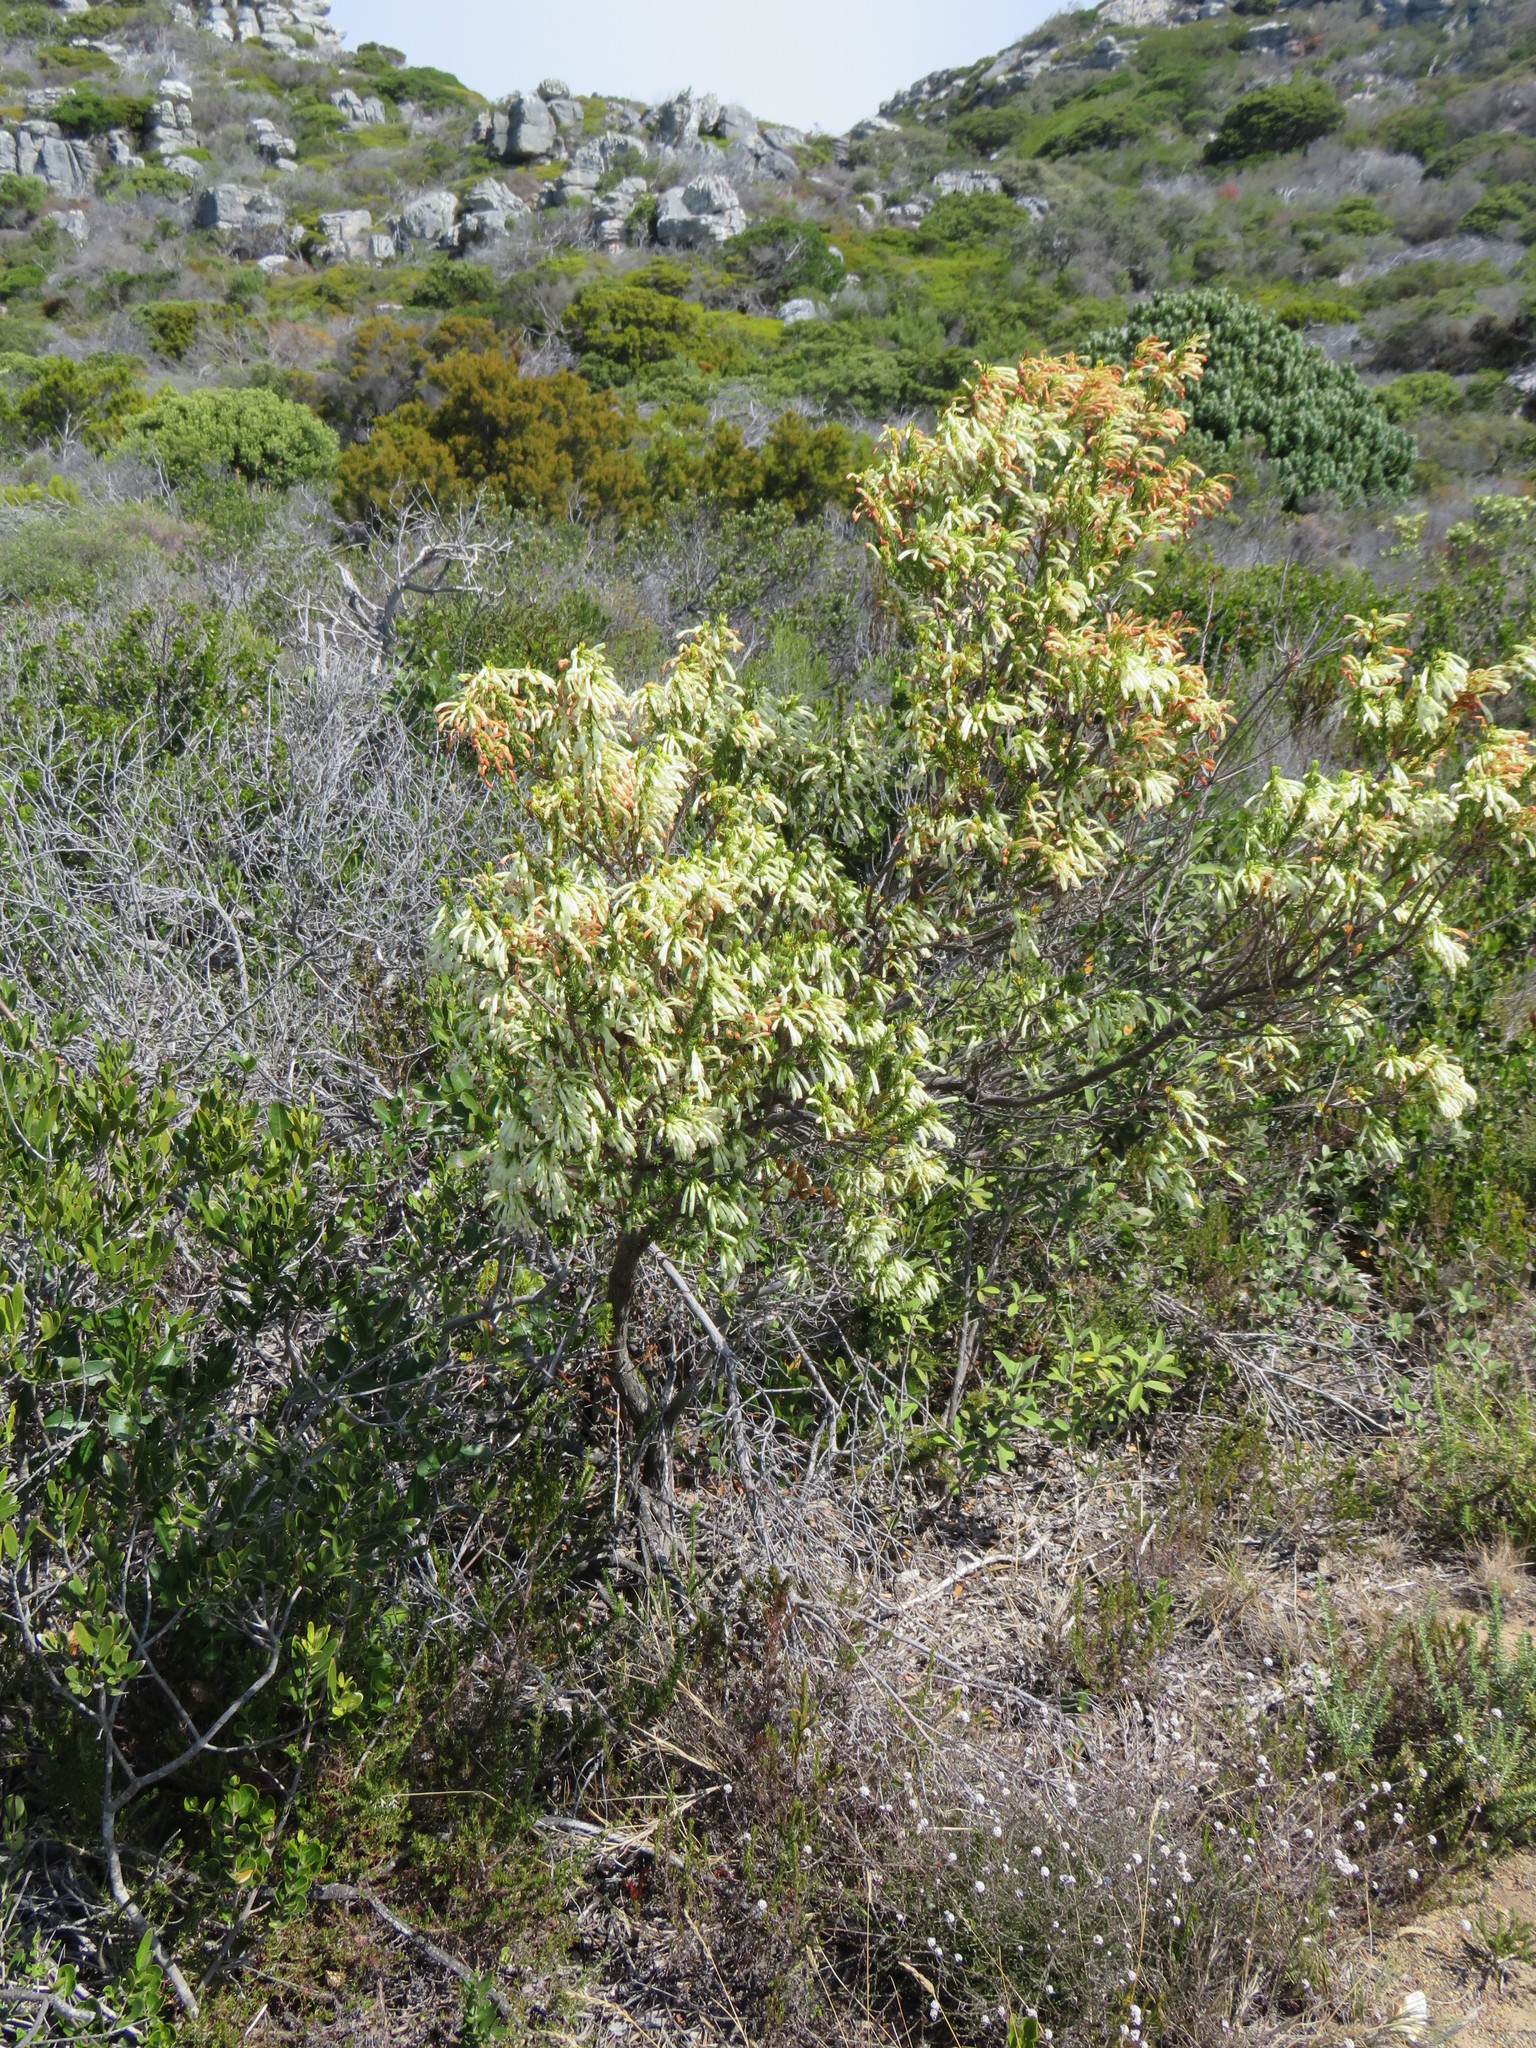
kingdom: Plantae
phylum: Tracheophyta
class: Magnoliopsida
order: Ericales
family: Ericaceae
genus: Erica
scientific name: Erica mammosa
